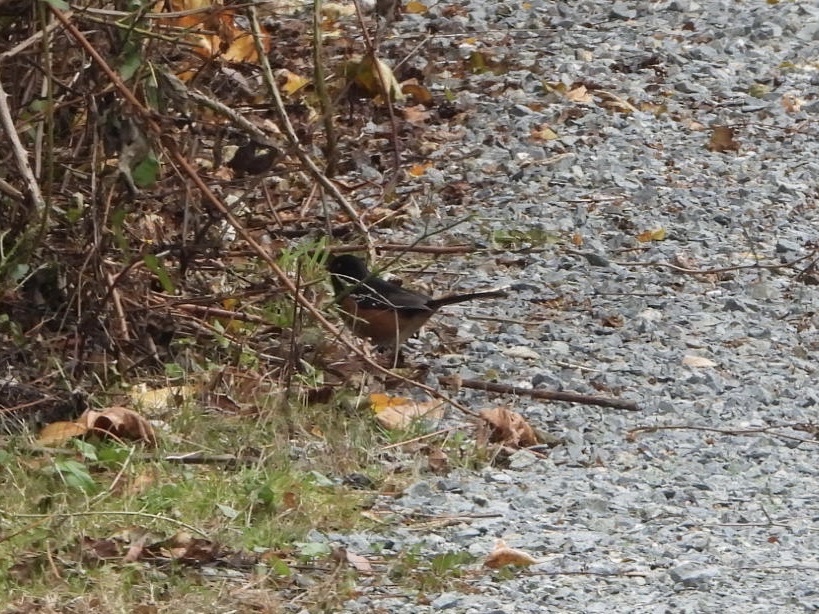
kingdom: Animalia
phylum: Chordata
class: Aves
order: Passeriformes
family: Passerellidae
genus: Pipilo
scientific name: Pipilo maculatus
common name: Spotted towhee
